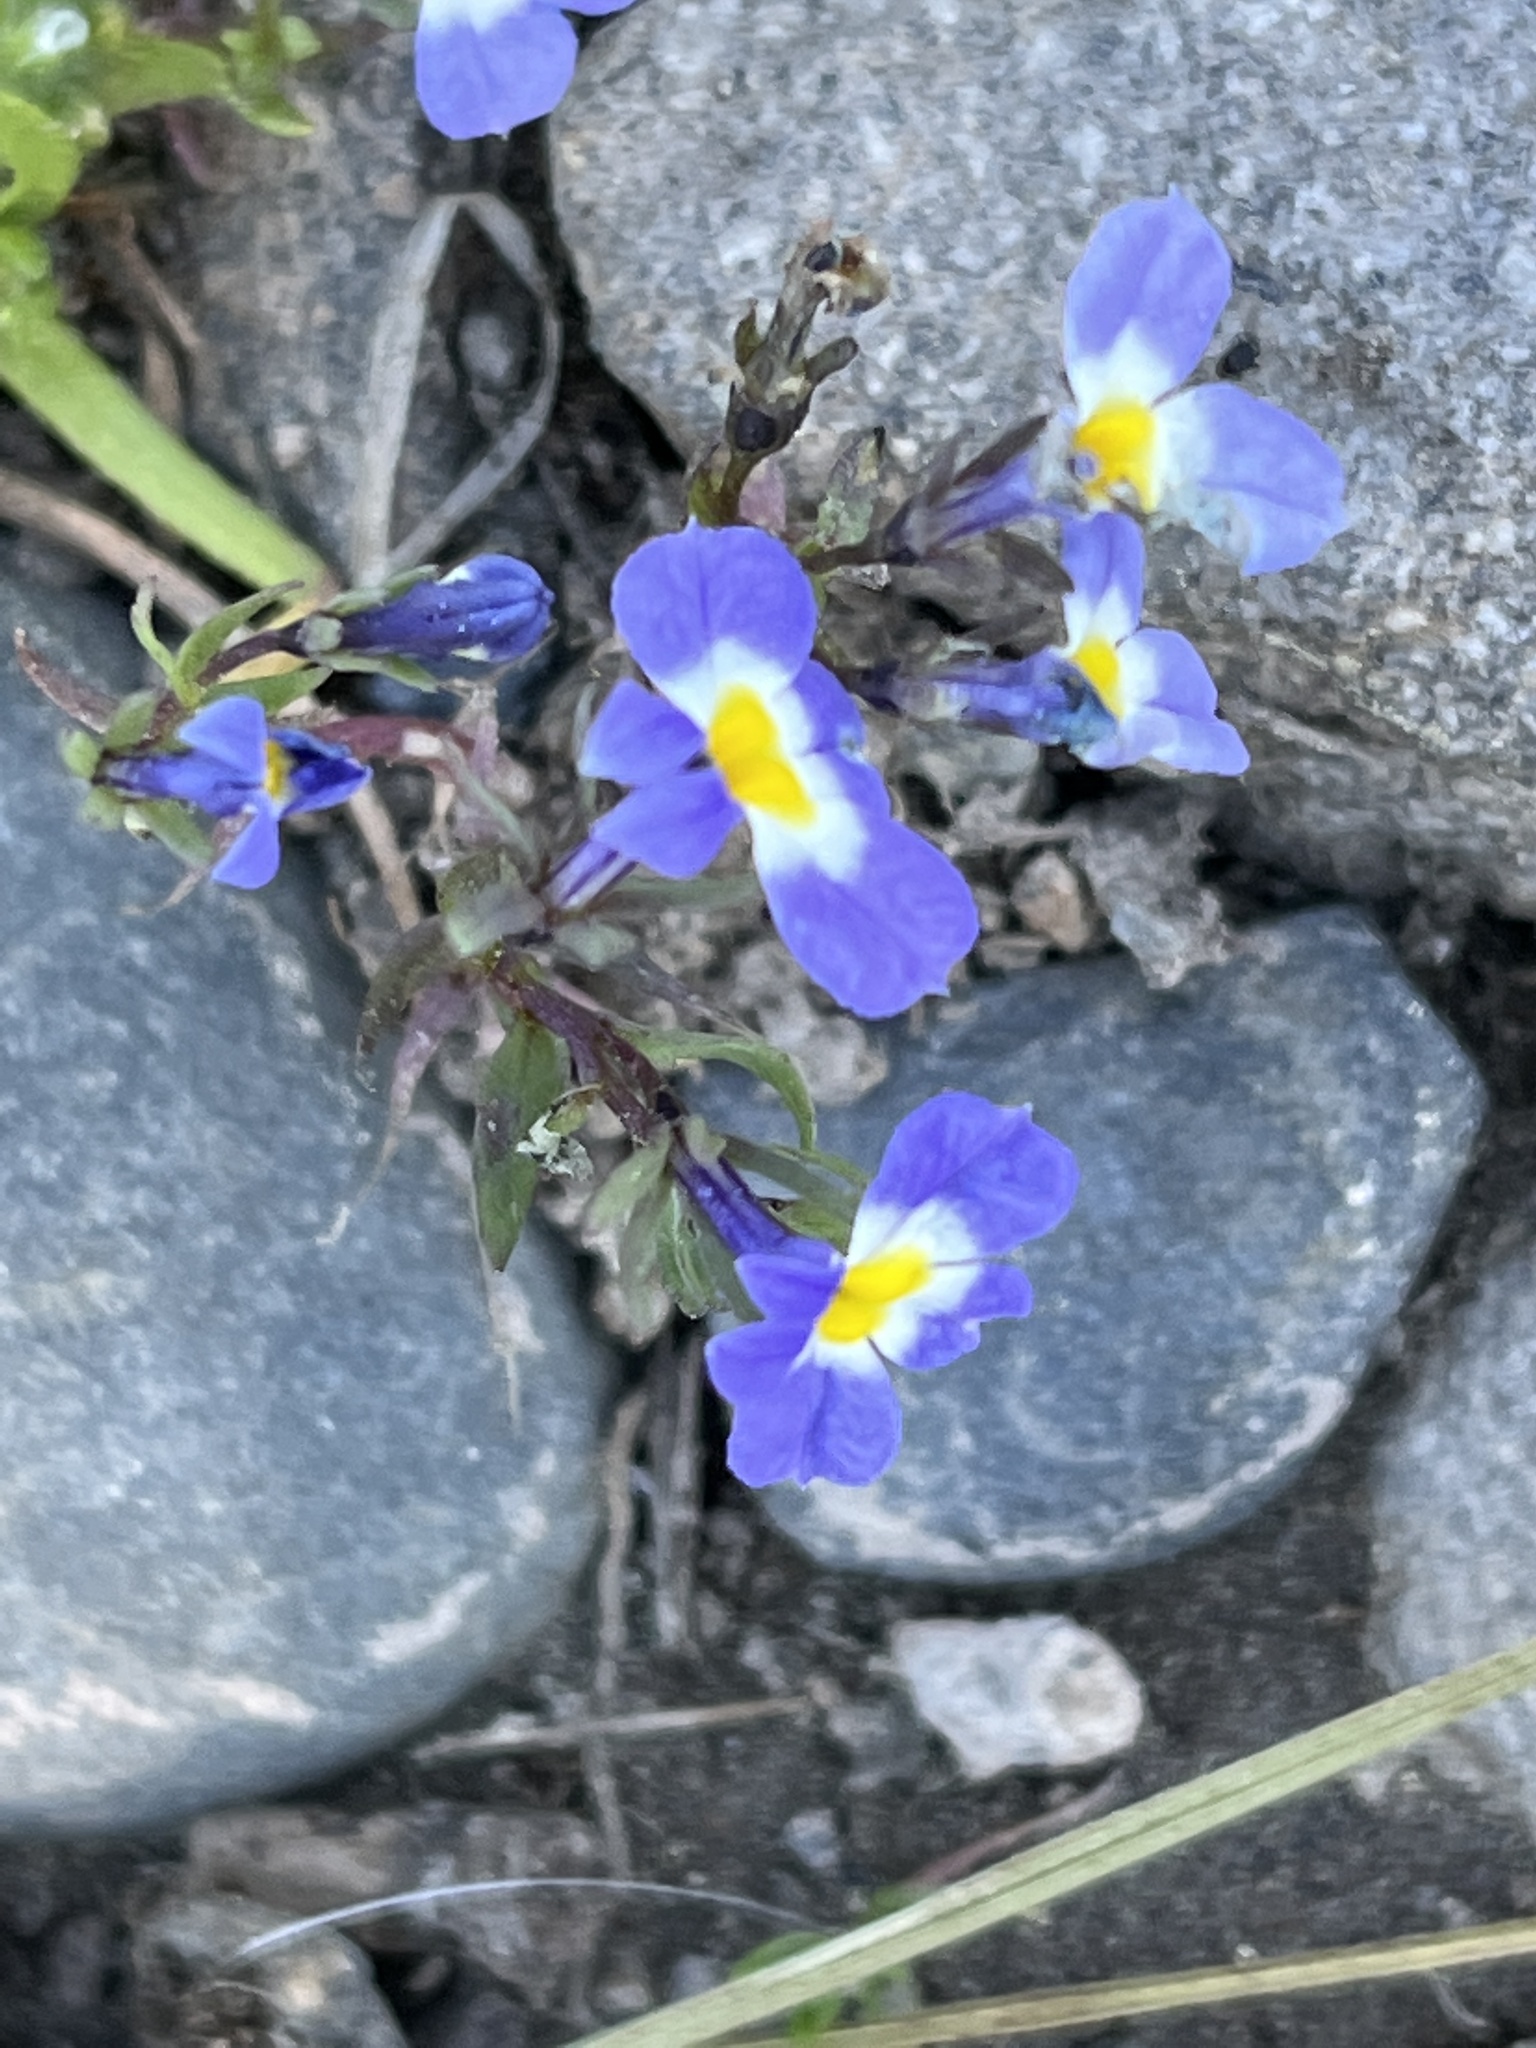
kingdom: Plantae
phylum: Tracheophyta
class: Magnoliopsida
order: Asterales
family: Campanulaceae
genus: Porterella
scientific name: Porterella carnosula
